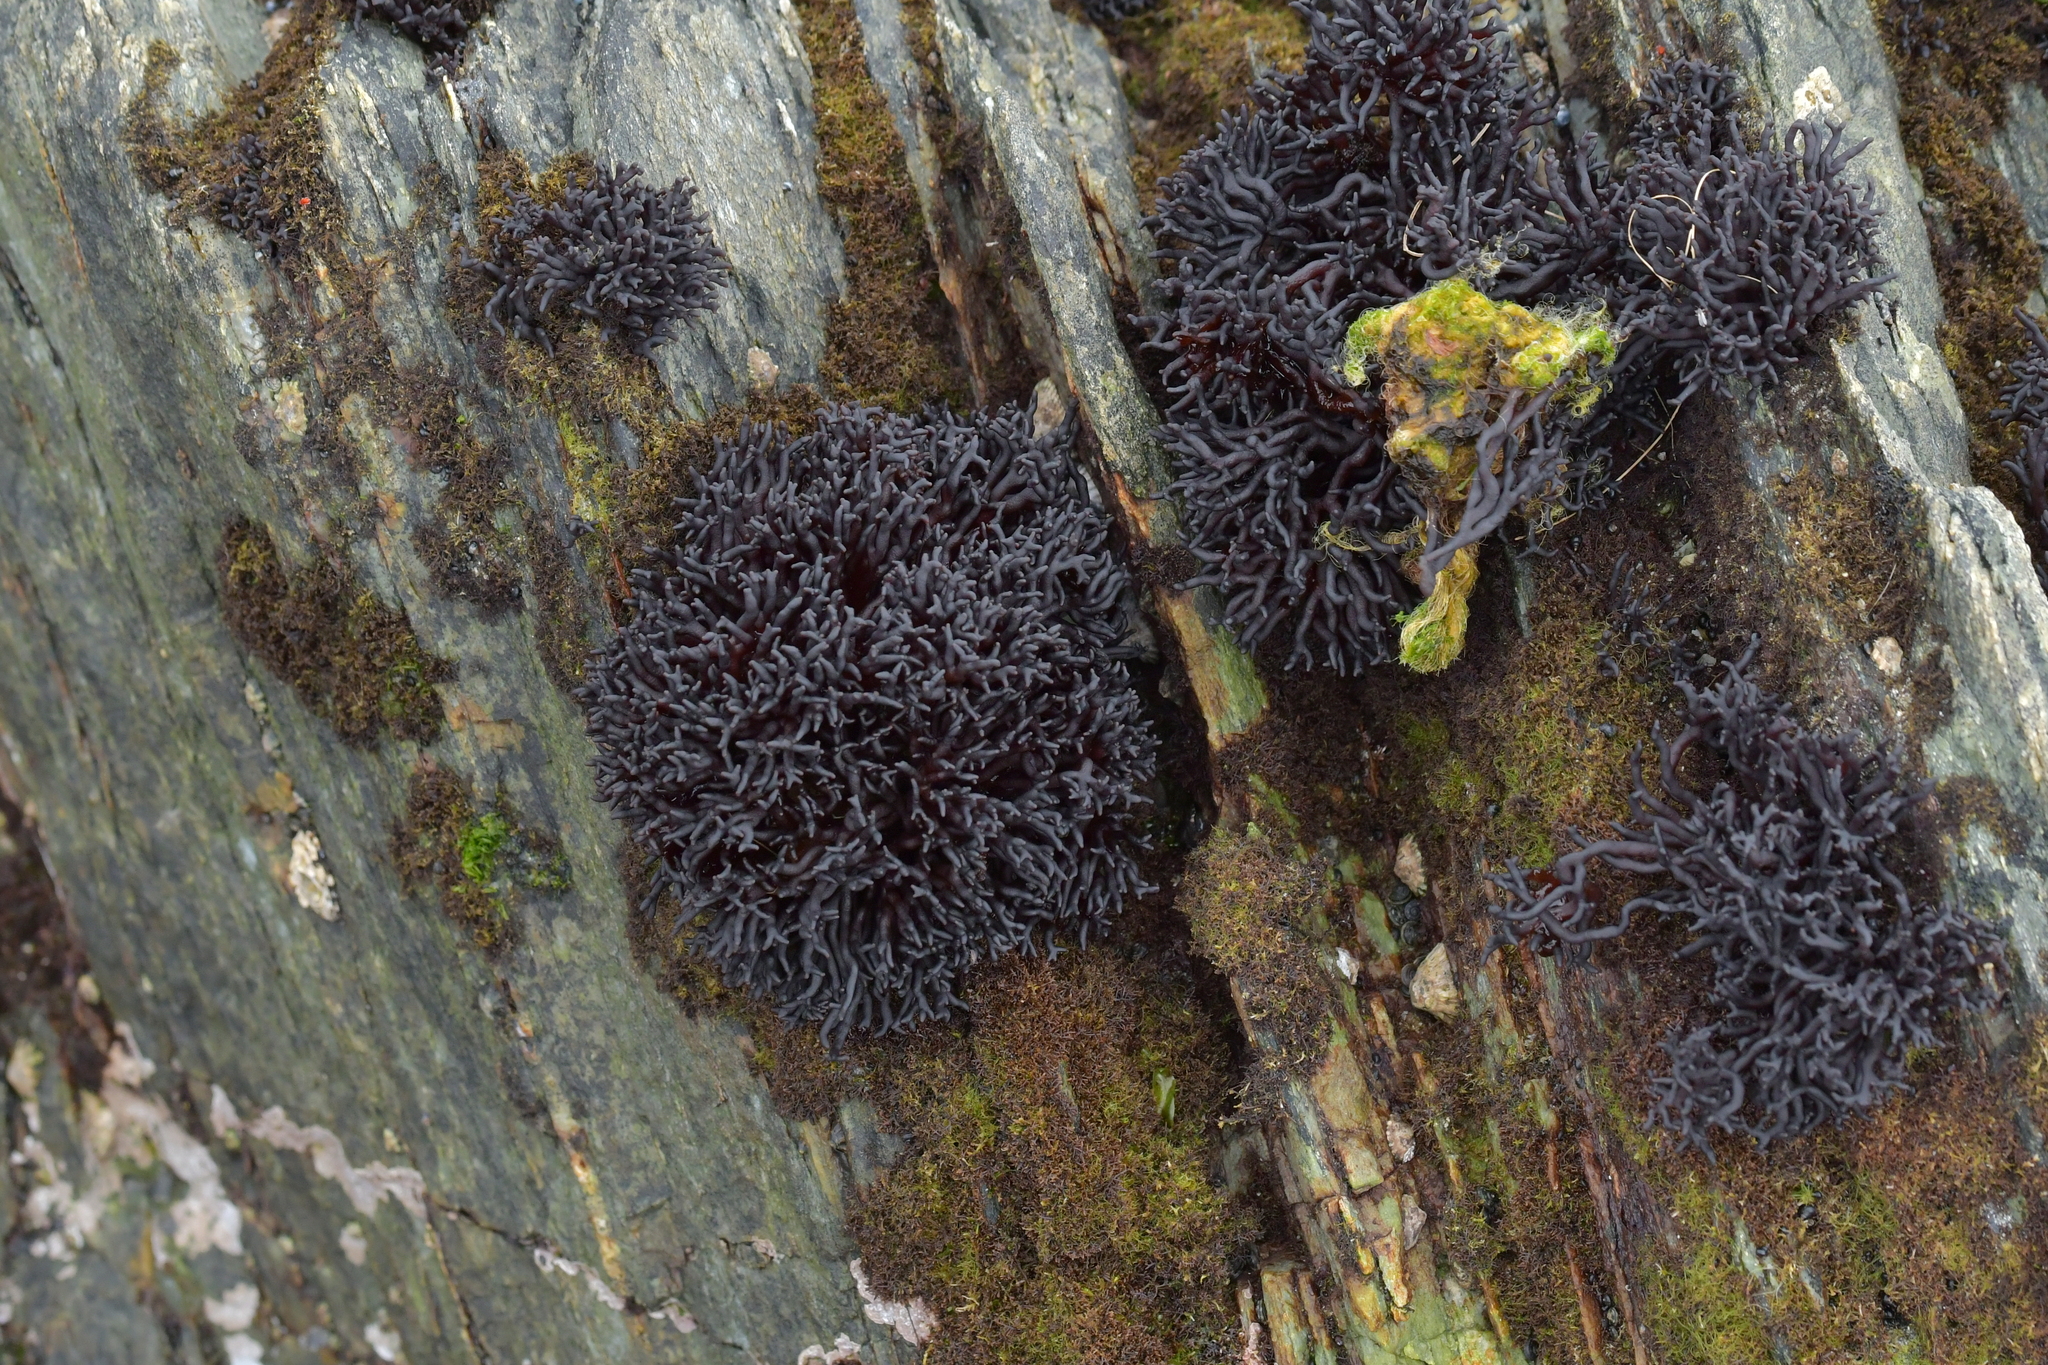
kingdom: Plantae
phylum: Rhodophyta
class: Florideophyceae
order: Hildenbrandiales
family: Hildenbrandiaceae
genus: Apophlaea
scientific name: Apophlaea lyallii
